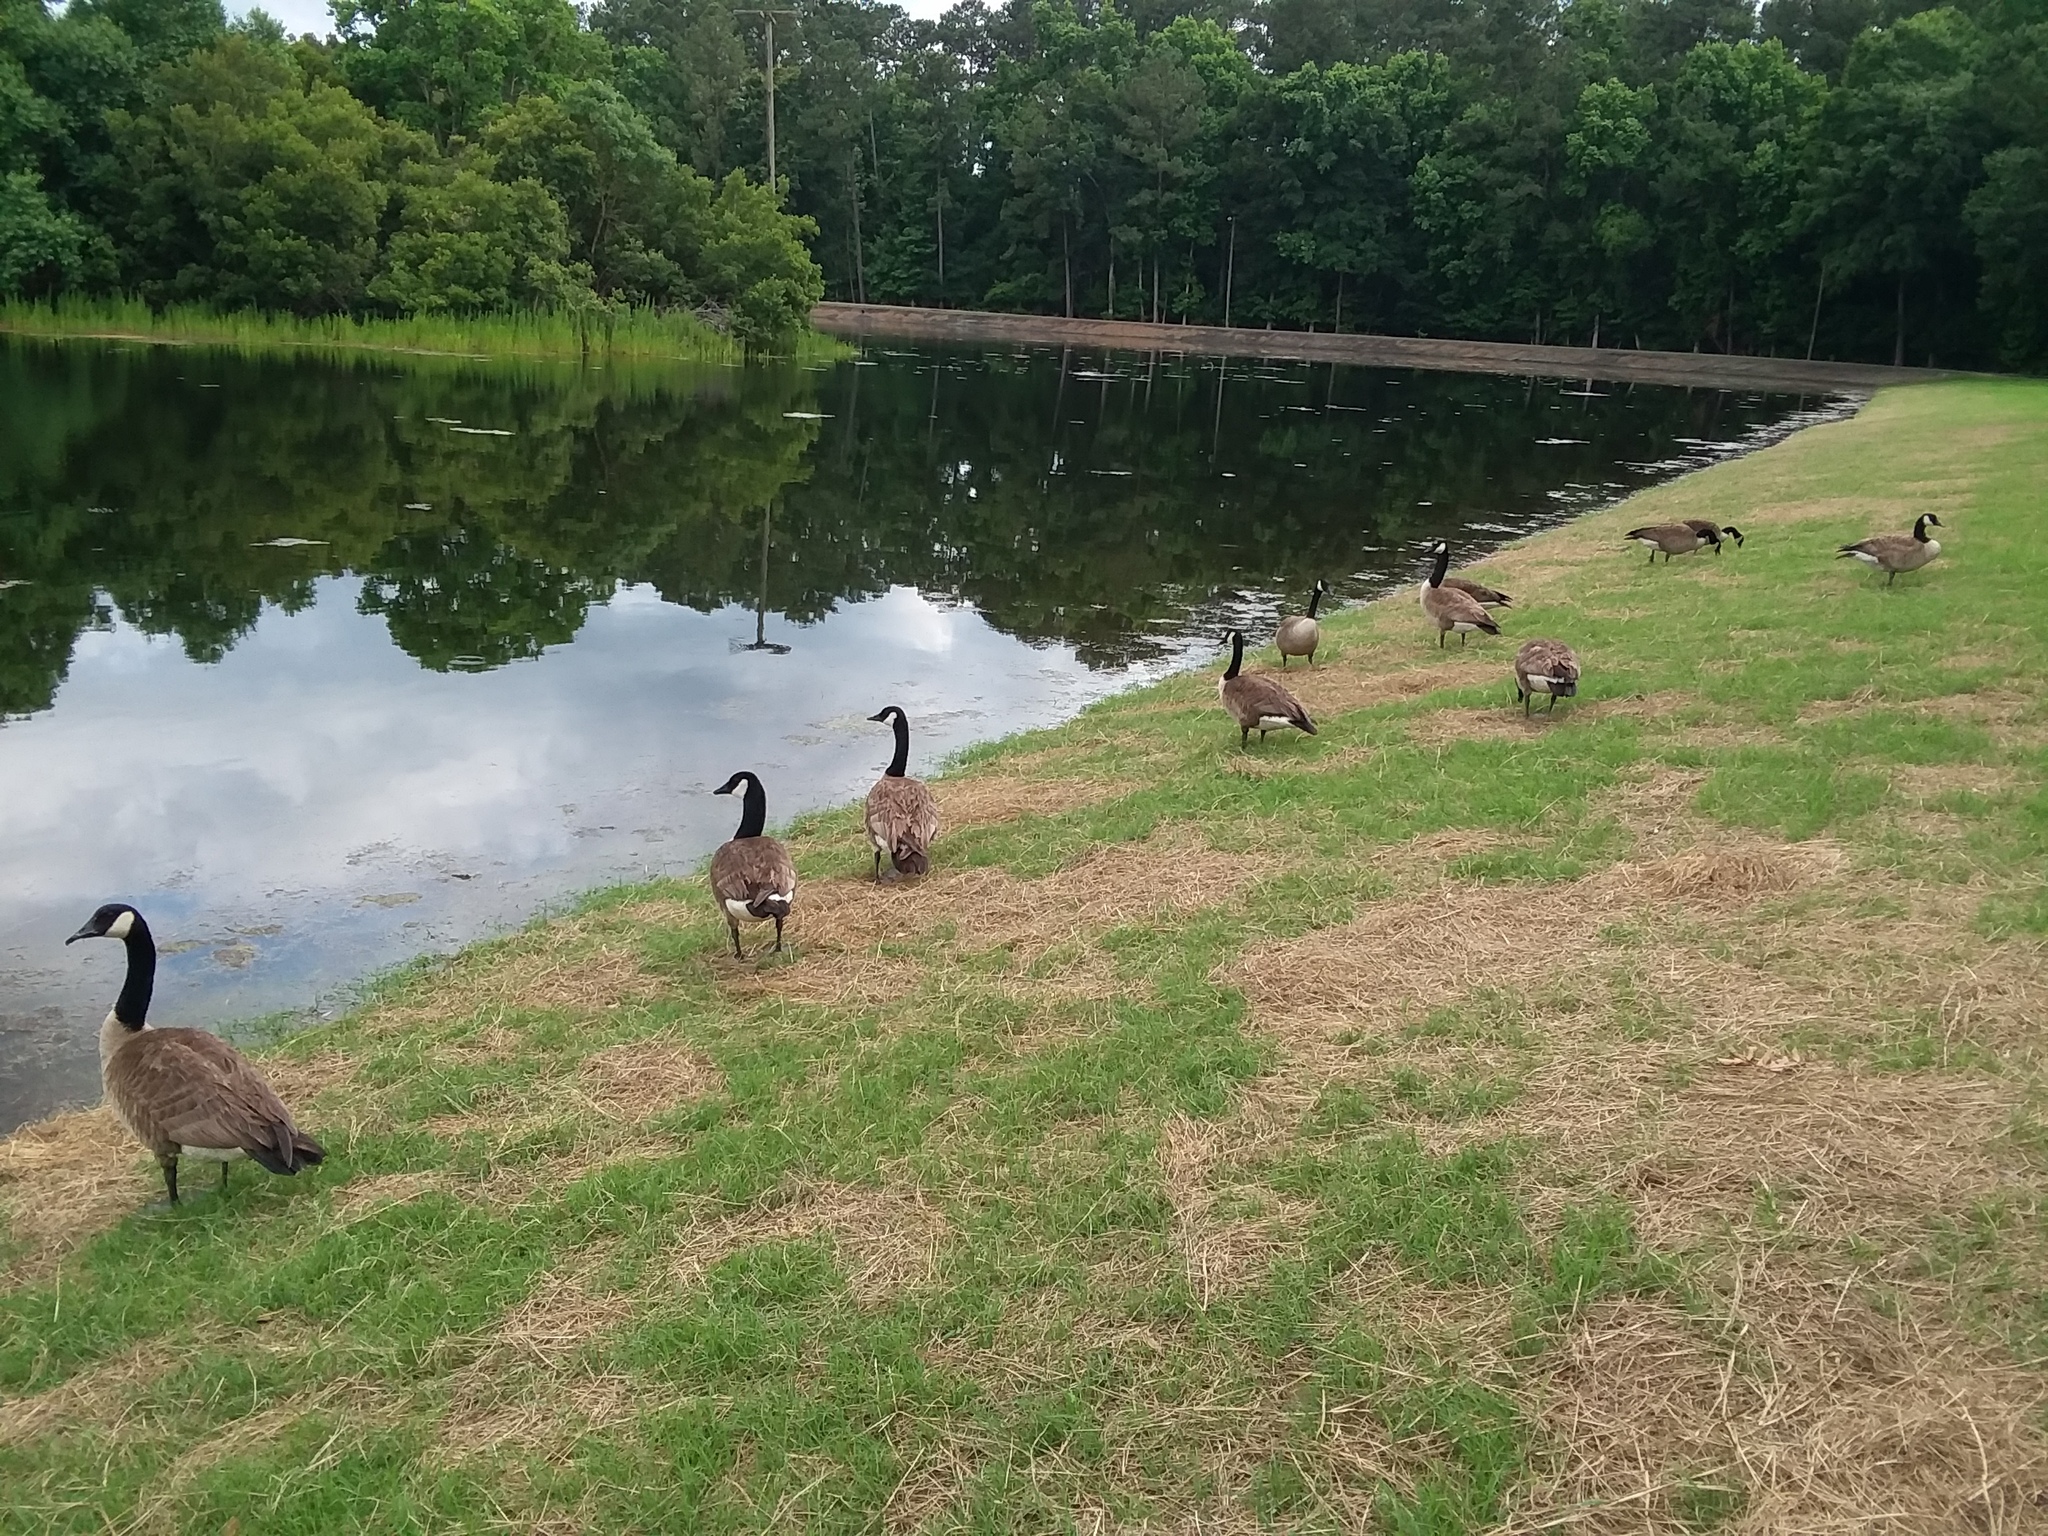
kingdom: Animalia
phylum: Chordata
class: Aves
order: Anseriformes
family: Anatidae
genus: Branta
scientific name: Branta canadensis
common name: Canada goose
